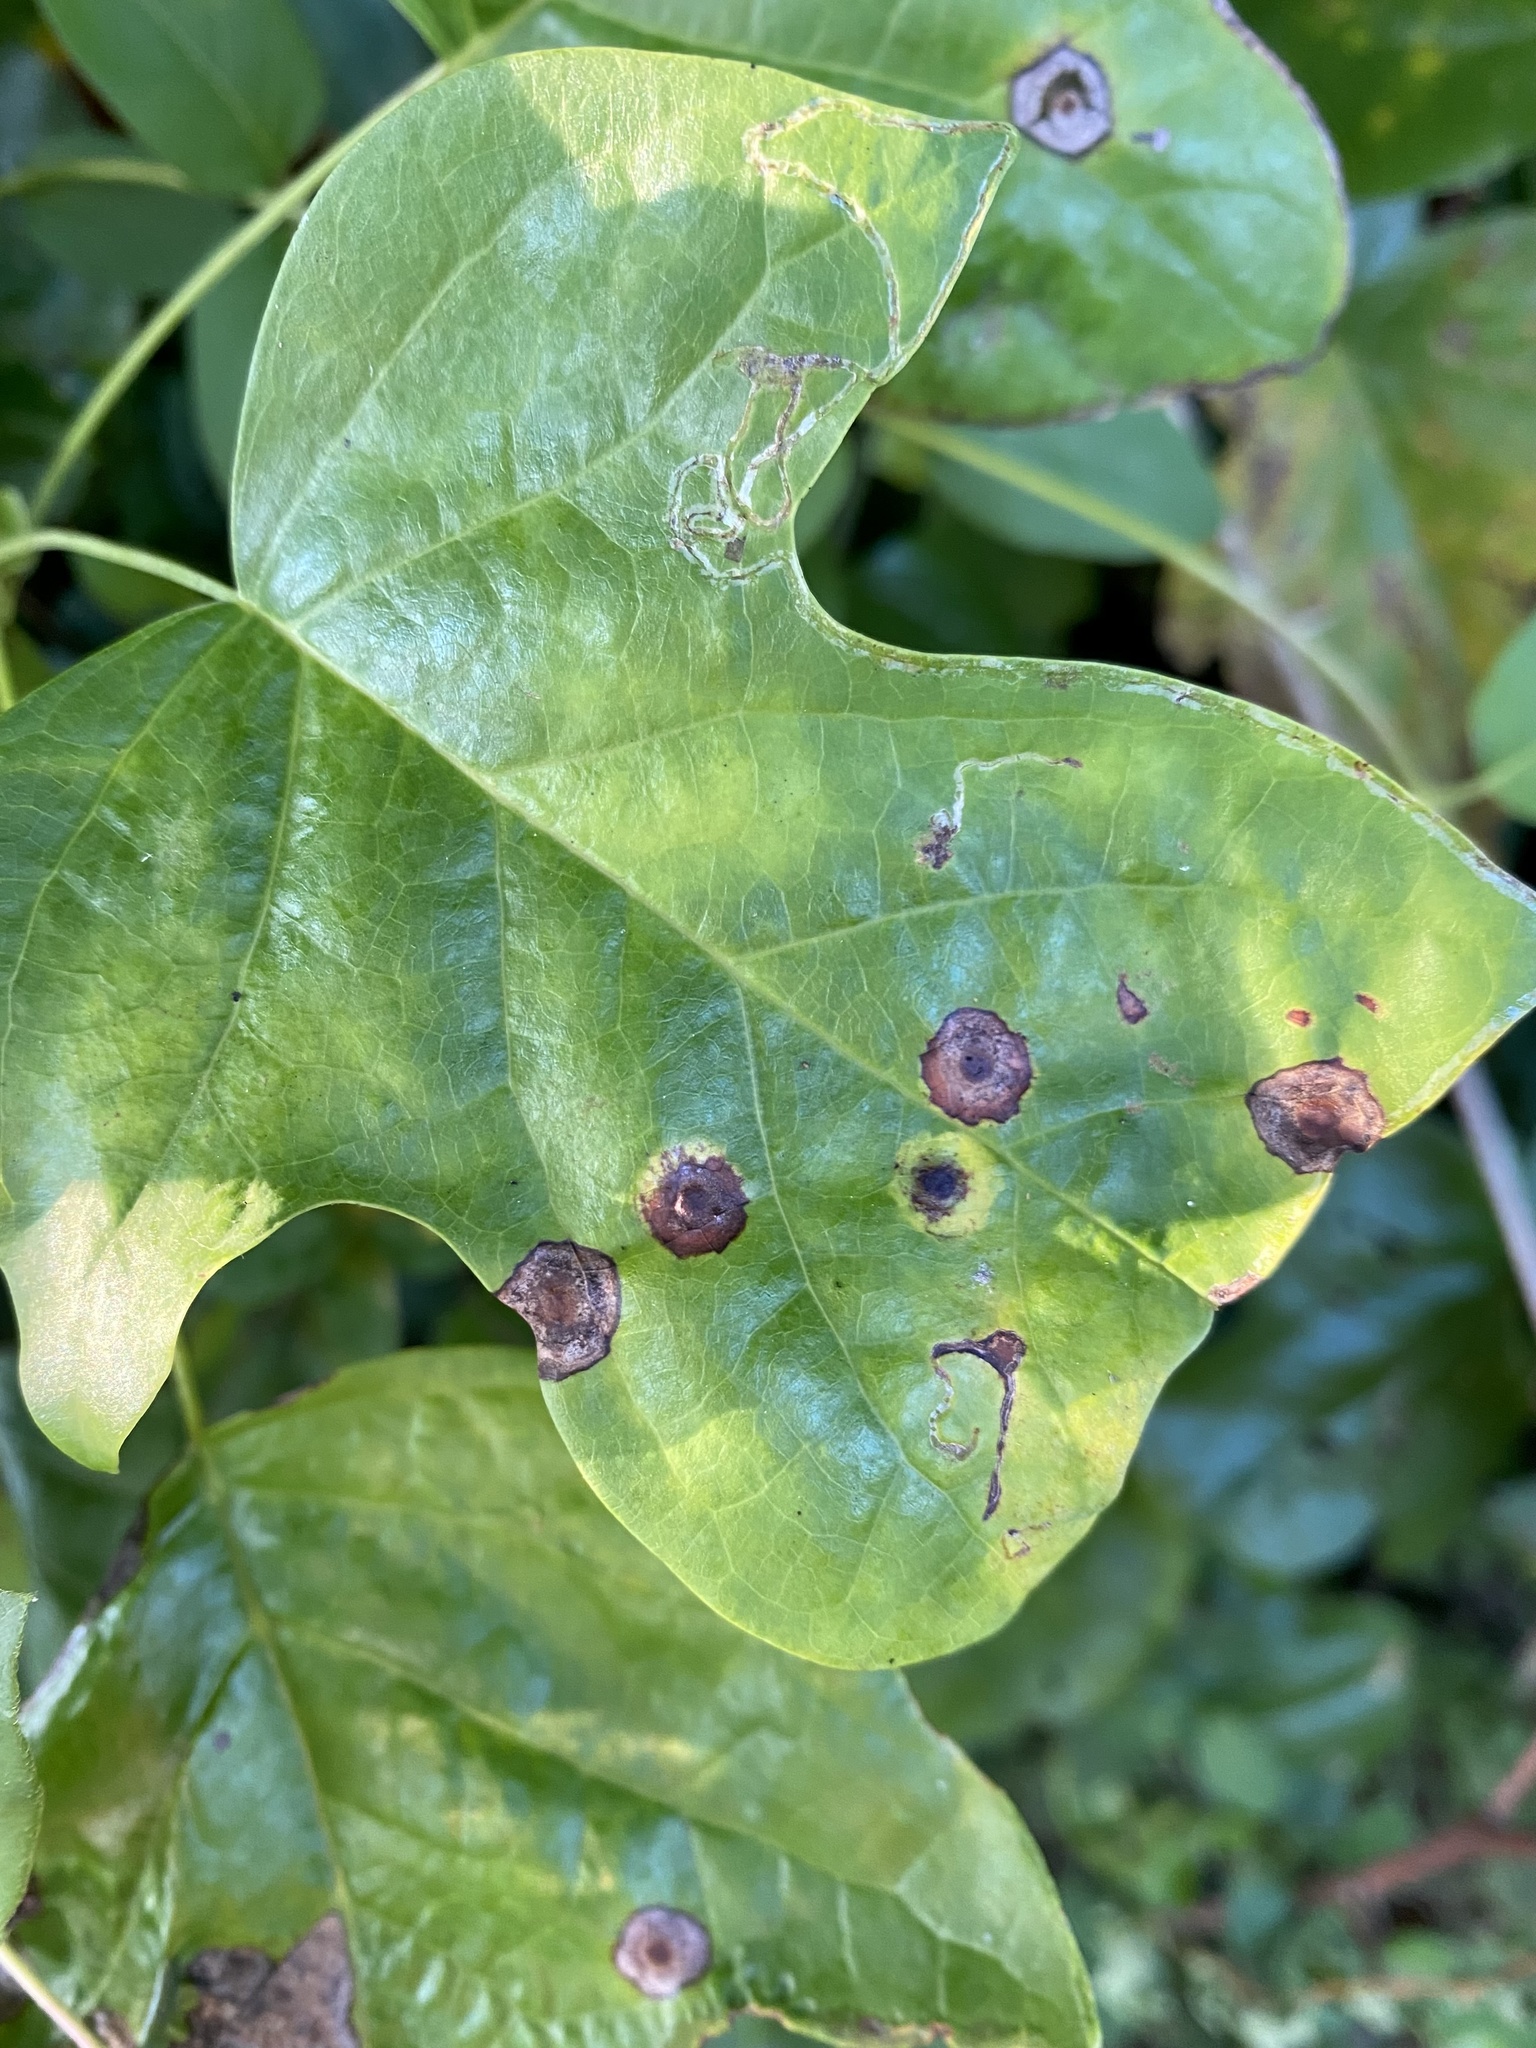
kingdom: Animalia
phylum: Arthropoda
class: Insecta
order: Diptera
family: Cecidomyiidae
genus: Resseliella
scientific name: Resseliella liriodendri
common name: Tulip tree leaf spot gall midge
